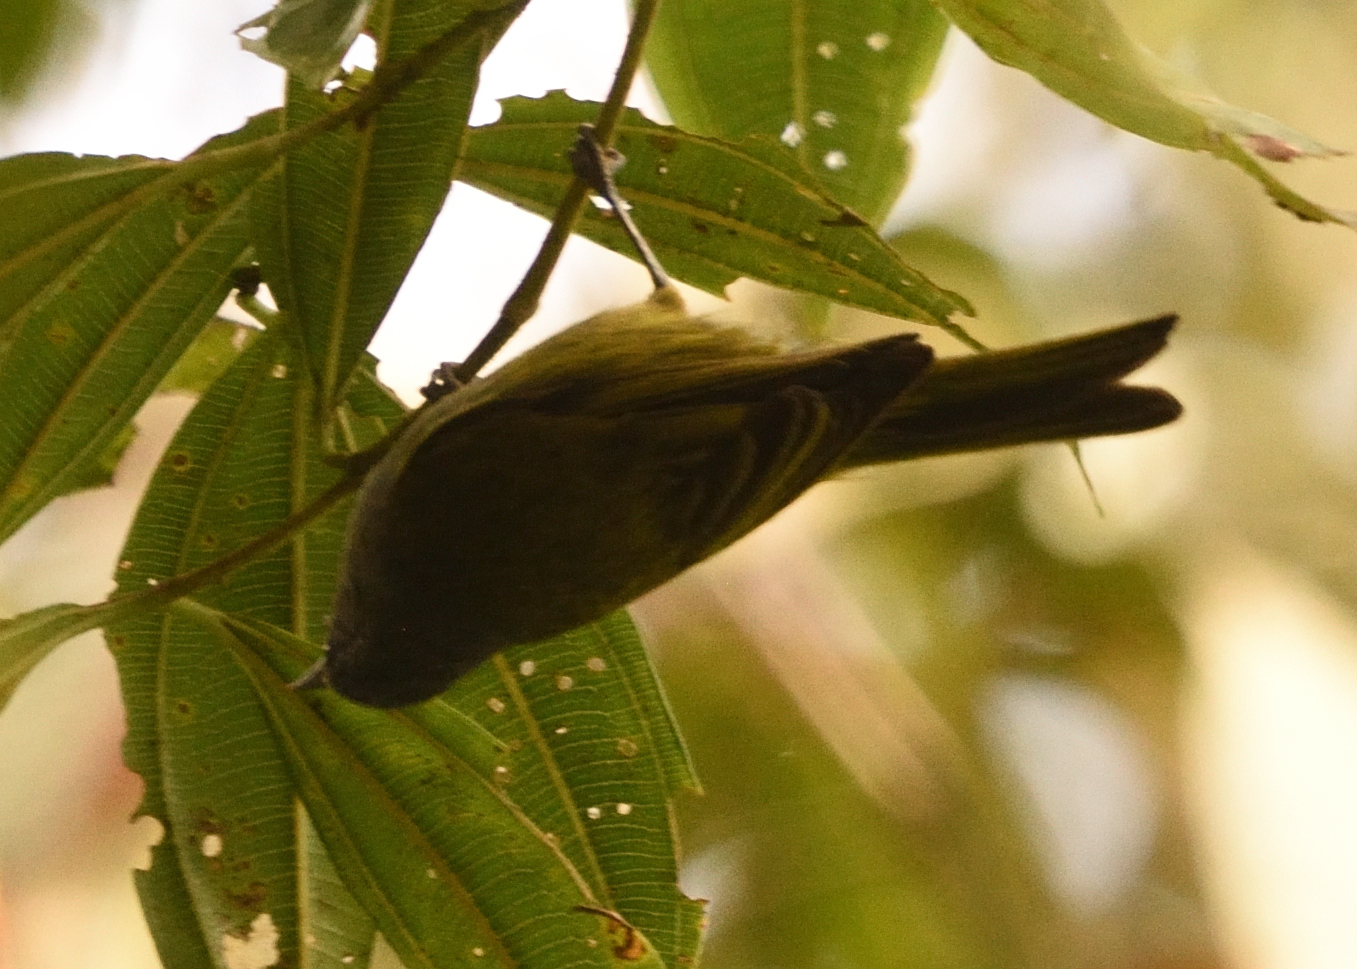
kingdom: Animalia
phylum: Chordata
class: Aves
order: Passeriformes
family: Thraupidae
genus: Conirostrum
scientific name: Conirostrum albifrons
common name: Capped conebill
